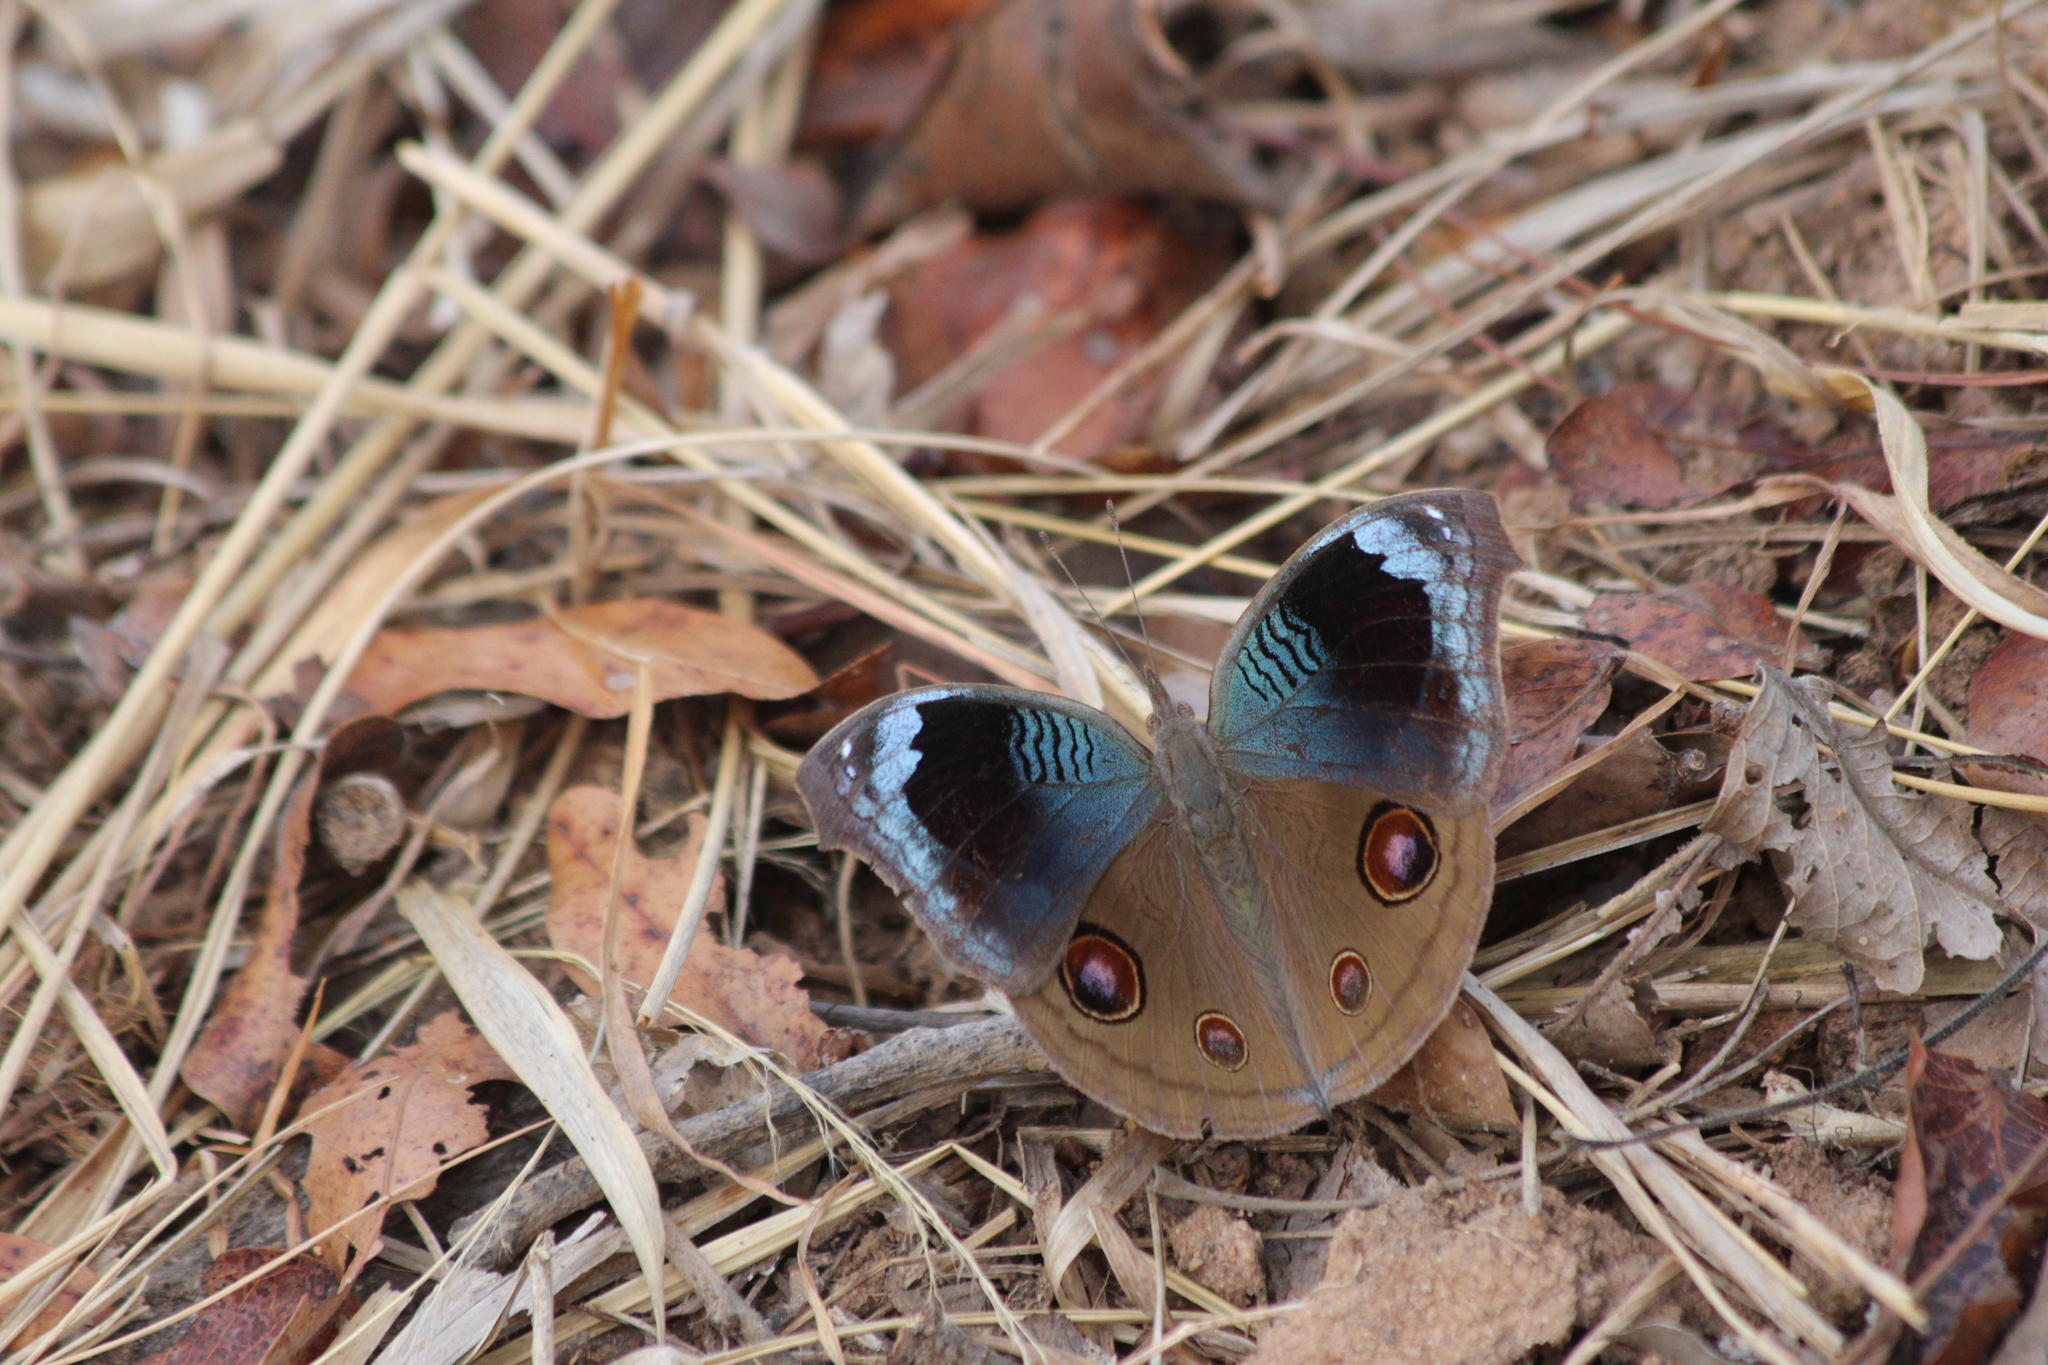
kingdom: Animalia
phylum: Arthropoda
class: Insecta
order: Lepidoptera
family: Nymphalidae
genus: Junonia
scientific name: Junonia artaxia
